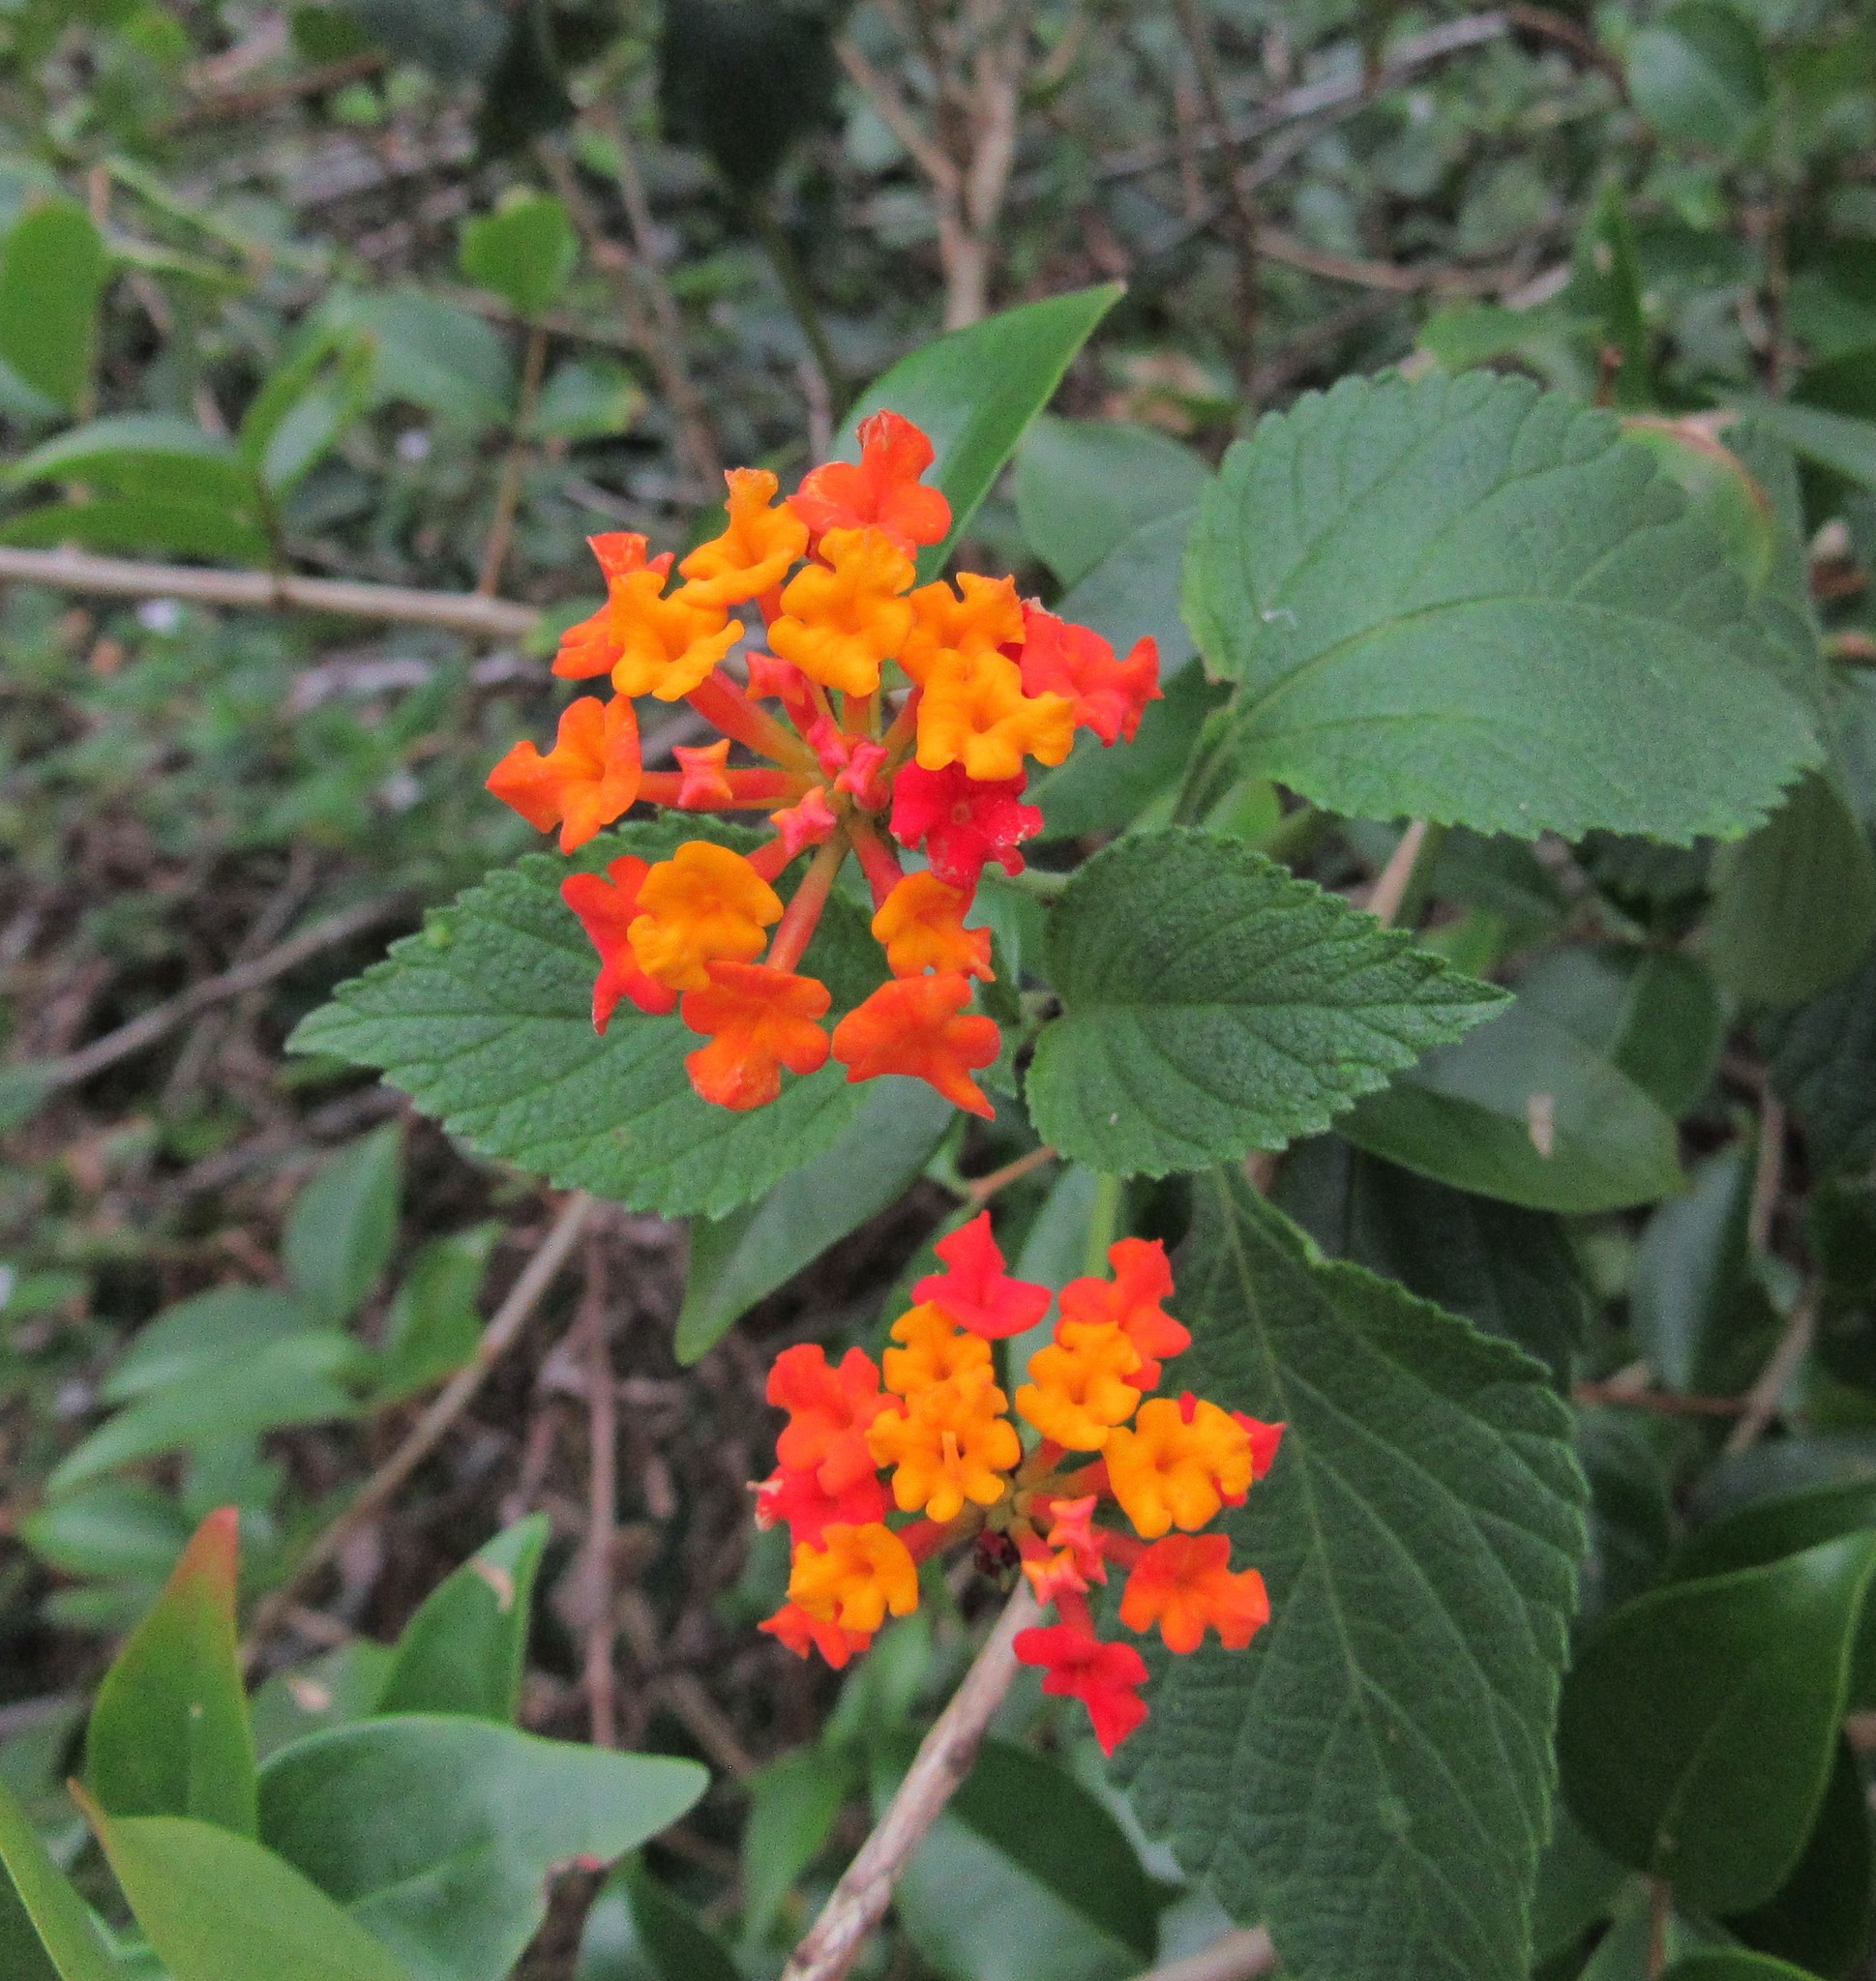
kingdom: Plantae
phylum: Tracheophyta
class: Magnoliopsida
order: Lamiales
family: Verbenaceae
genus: Lantana
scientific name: Lantana camara
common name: Lantana
